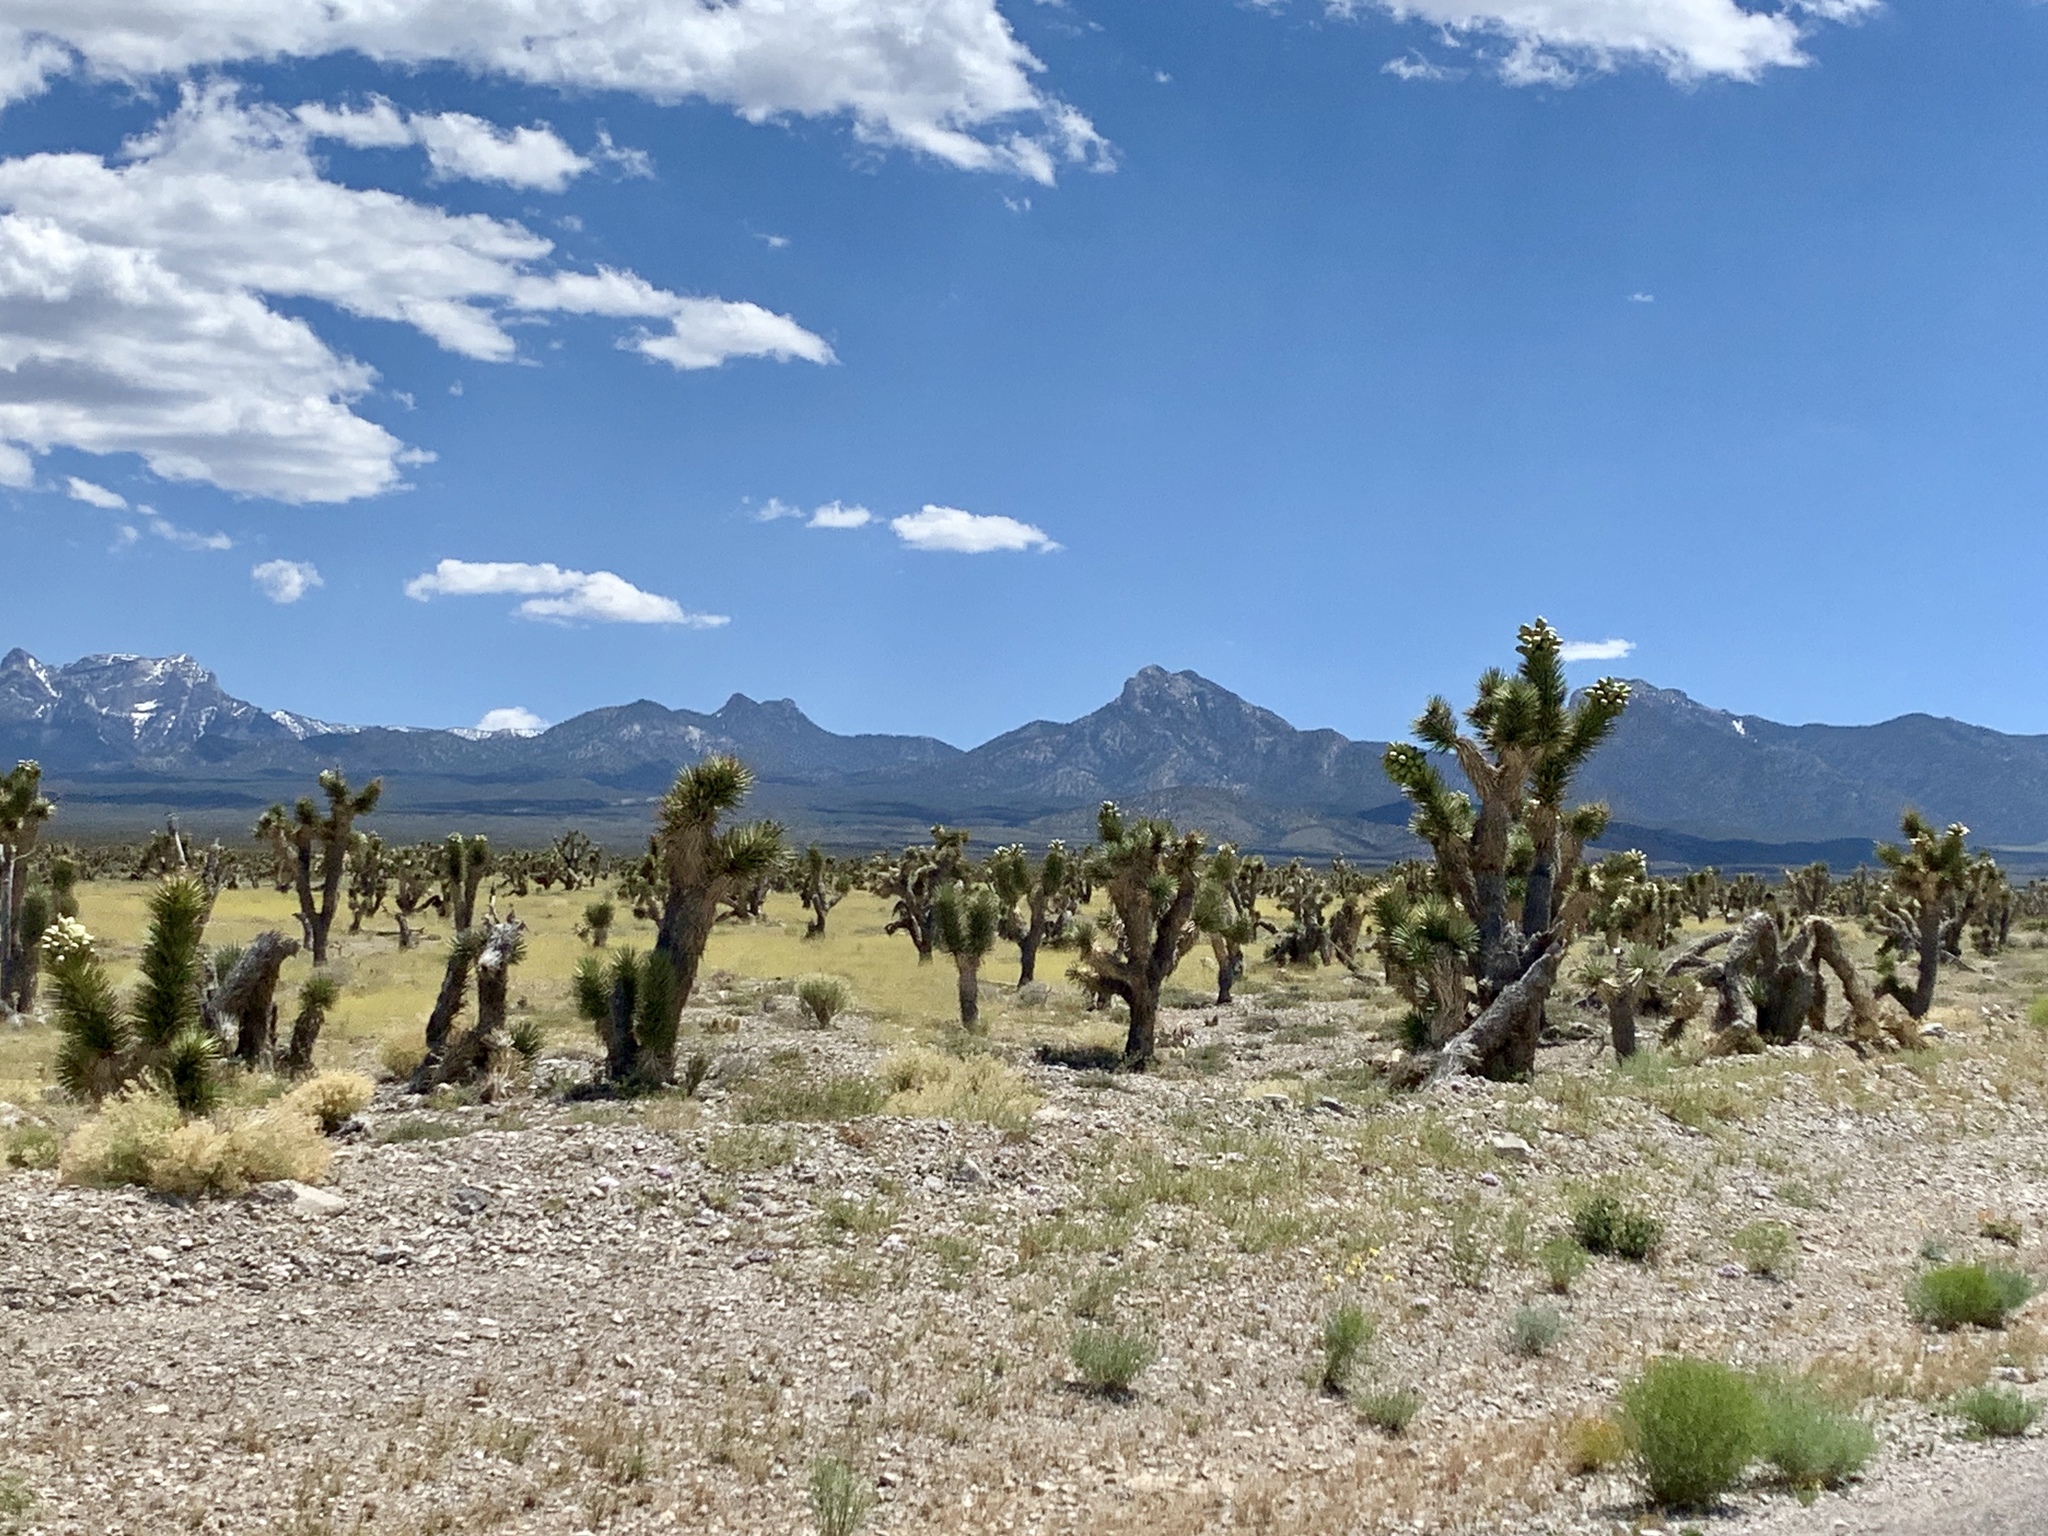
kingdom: Plantae
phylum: Tracheophyta
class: Liliopsida
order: Asparagales
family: Asparagaceae
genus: Yucca
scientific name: Yucca brevifolia
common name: Joshua tree
